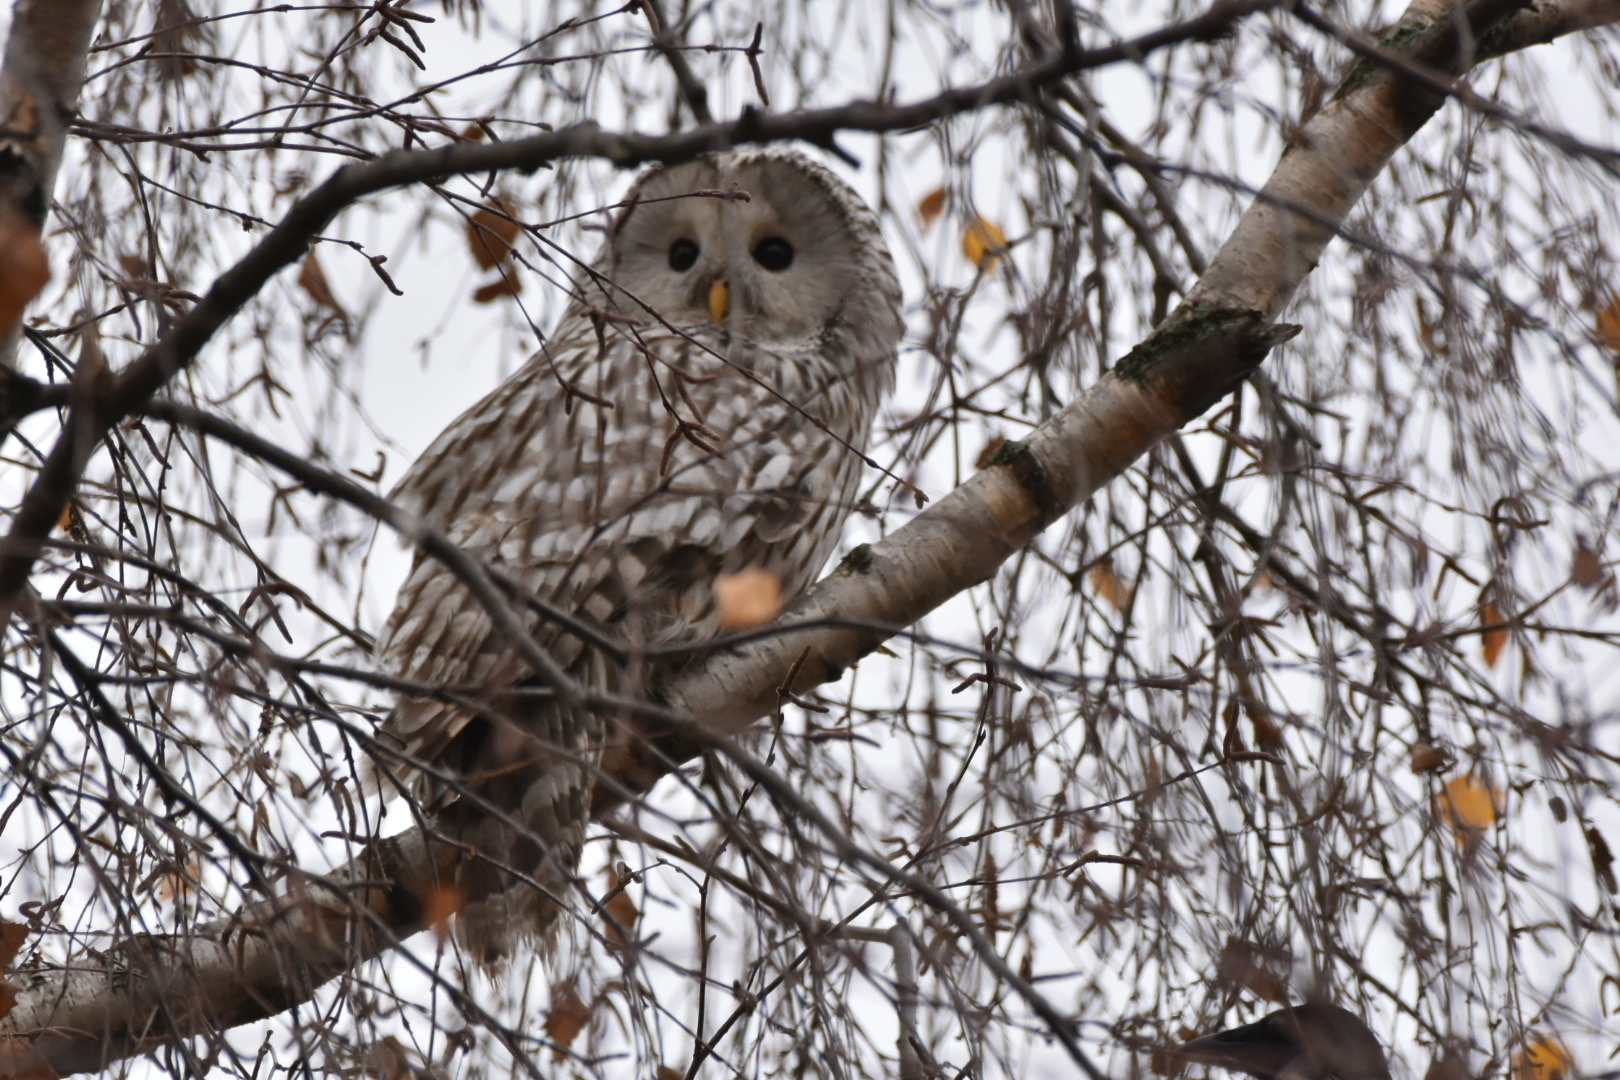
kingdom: Animalia
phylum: Chordata
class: Aves
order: Strigiformes
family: Strigidae
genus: Strix
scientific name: Strix uralensis
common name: Ural owl
